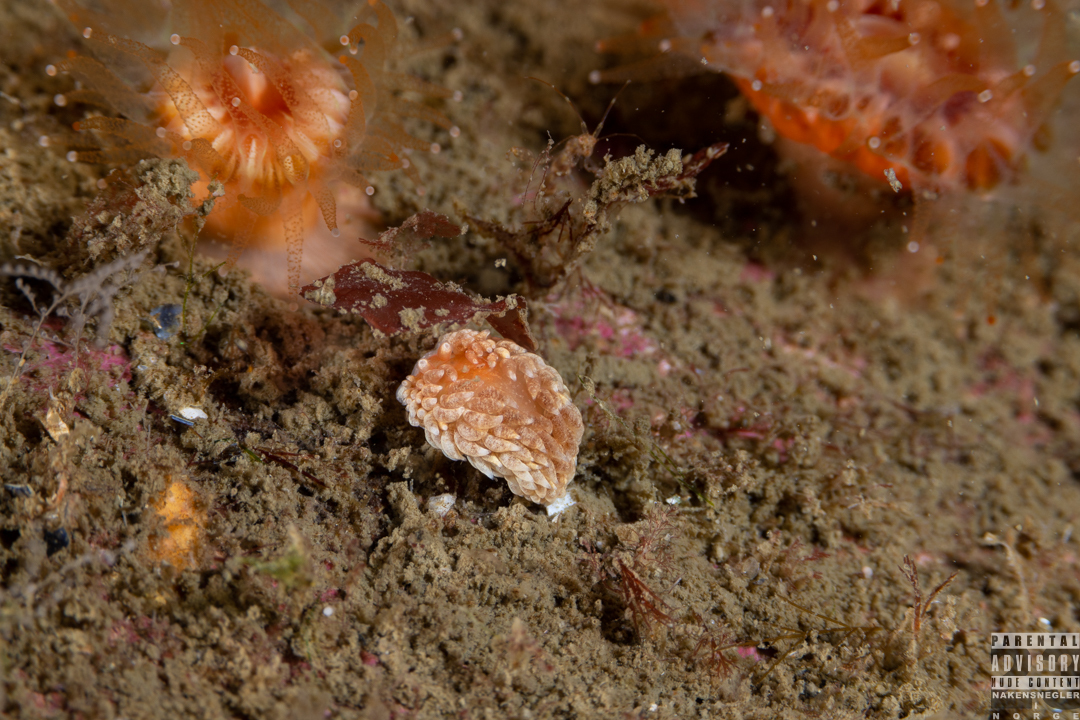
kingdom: Animalia
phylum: Mollusca
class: Gastropoda
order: Nudibranchia
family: Aeolidiidae
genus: Aeolidiella
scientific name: Aeolidiella glauca
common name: Orange-brown aeolid
